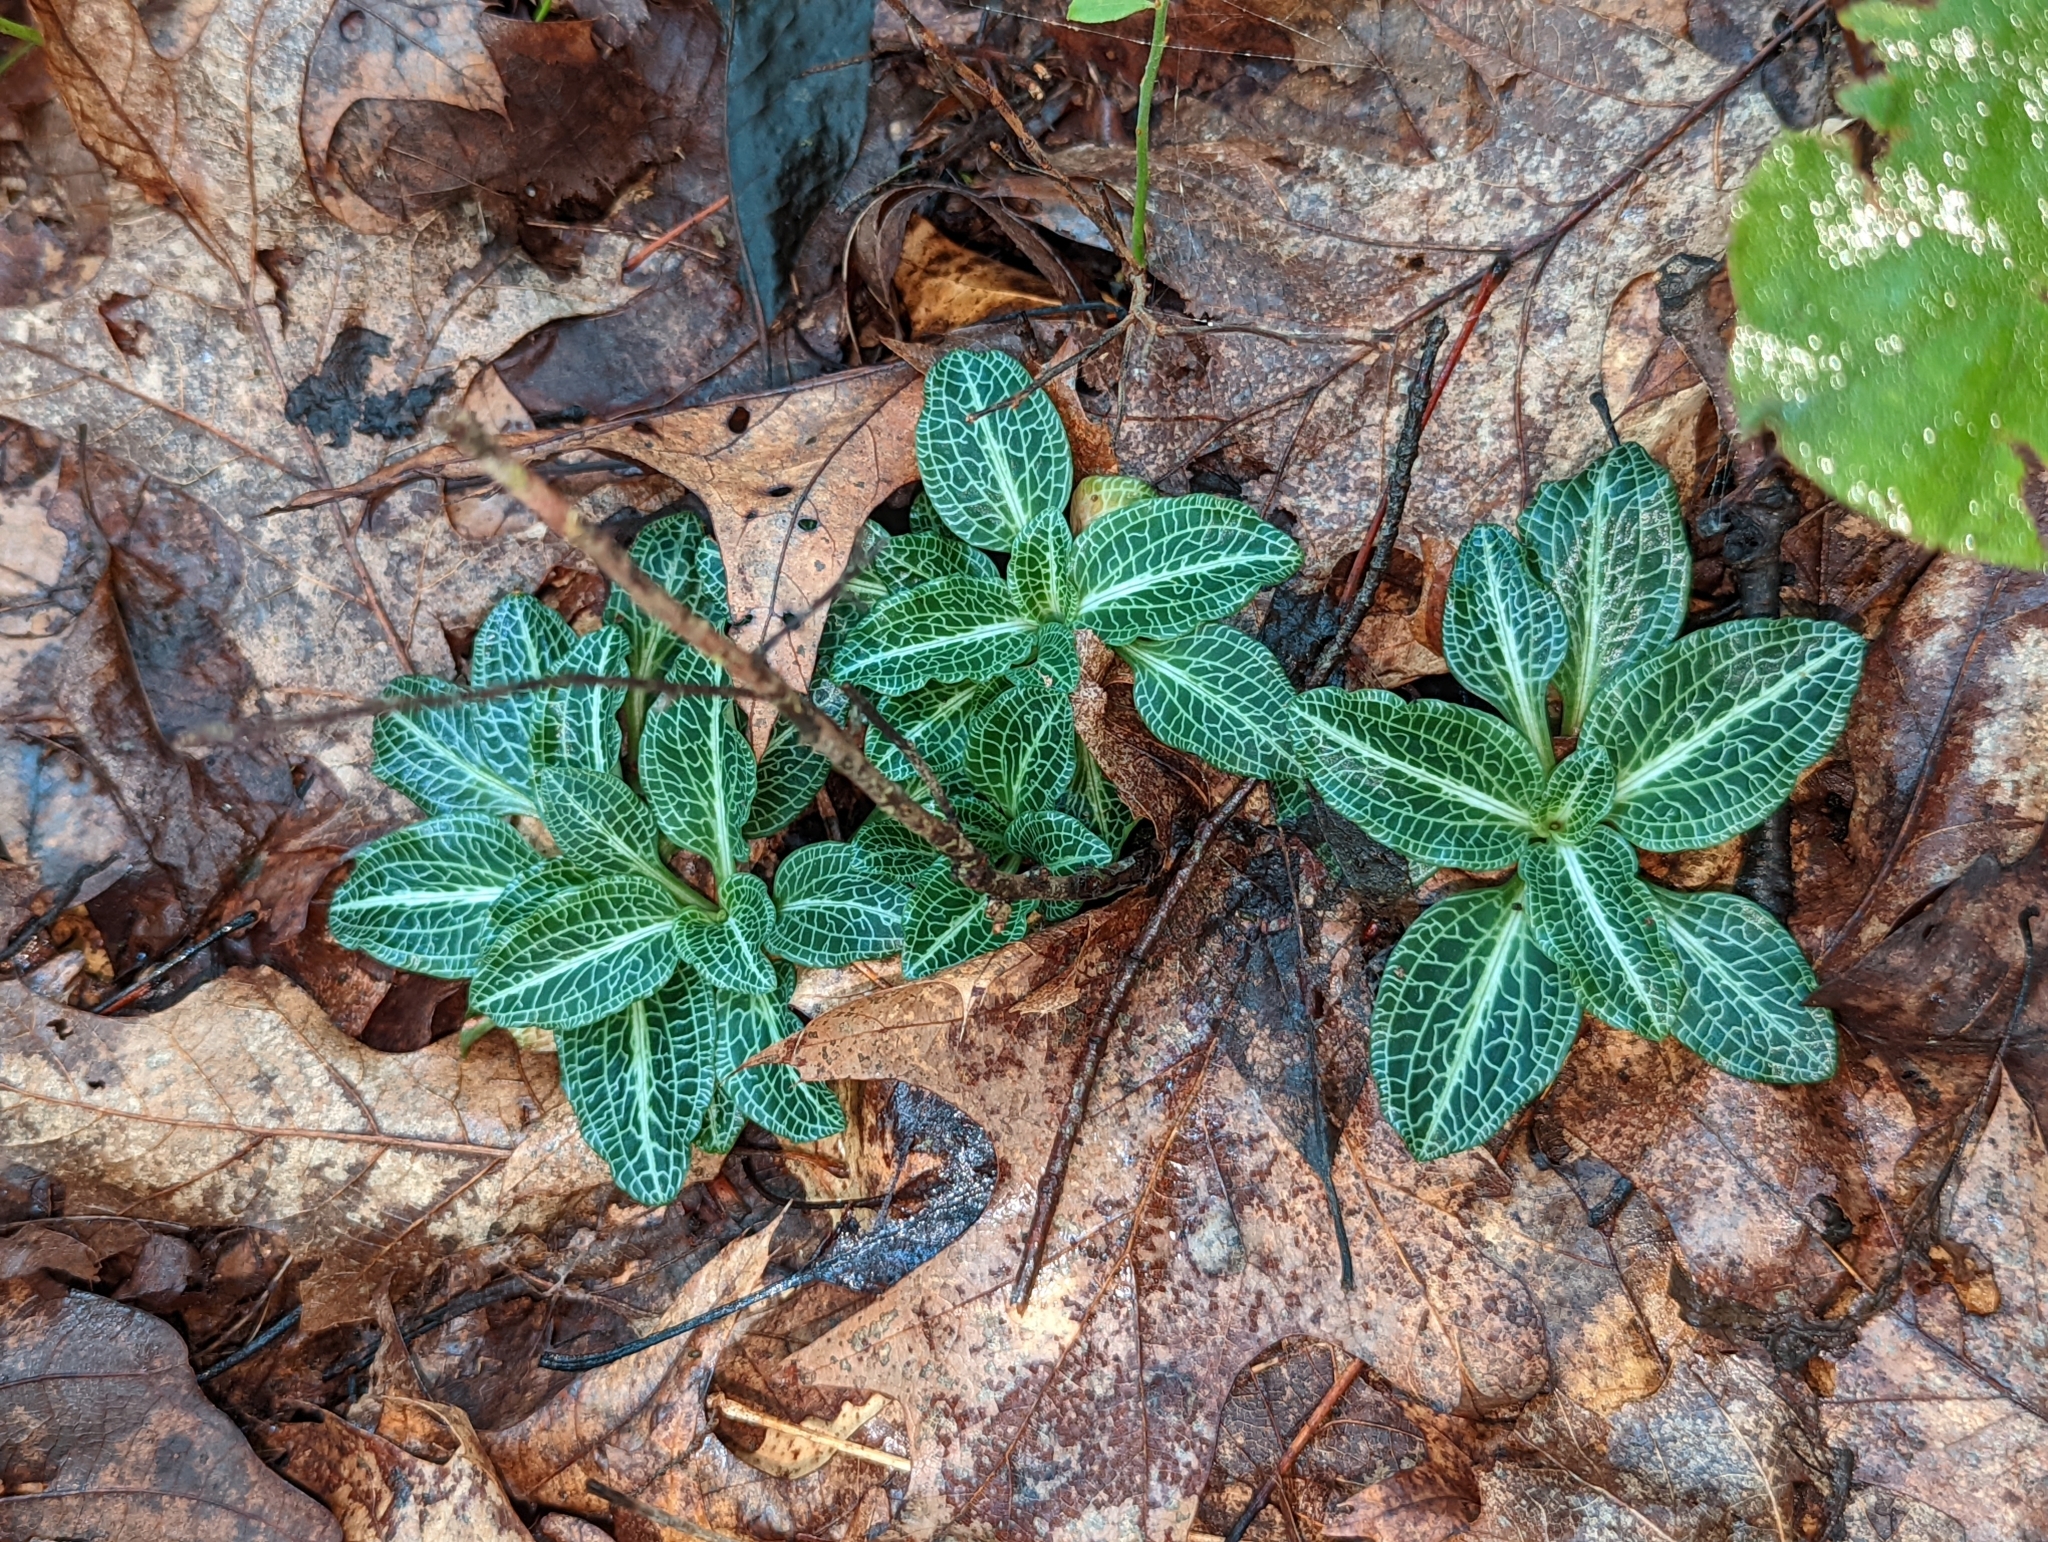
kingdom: Plantae
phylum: Tracheophyta
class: Liliopsida
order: Asparagales
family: Orchidaceae
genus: Goodyera
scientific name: Goodyera pubescens
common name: Downy rattlesnake-plantain
